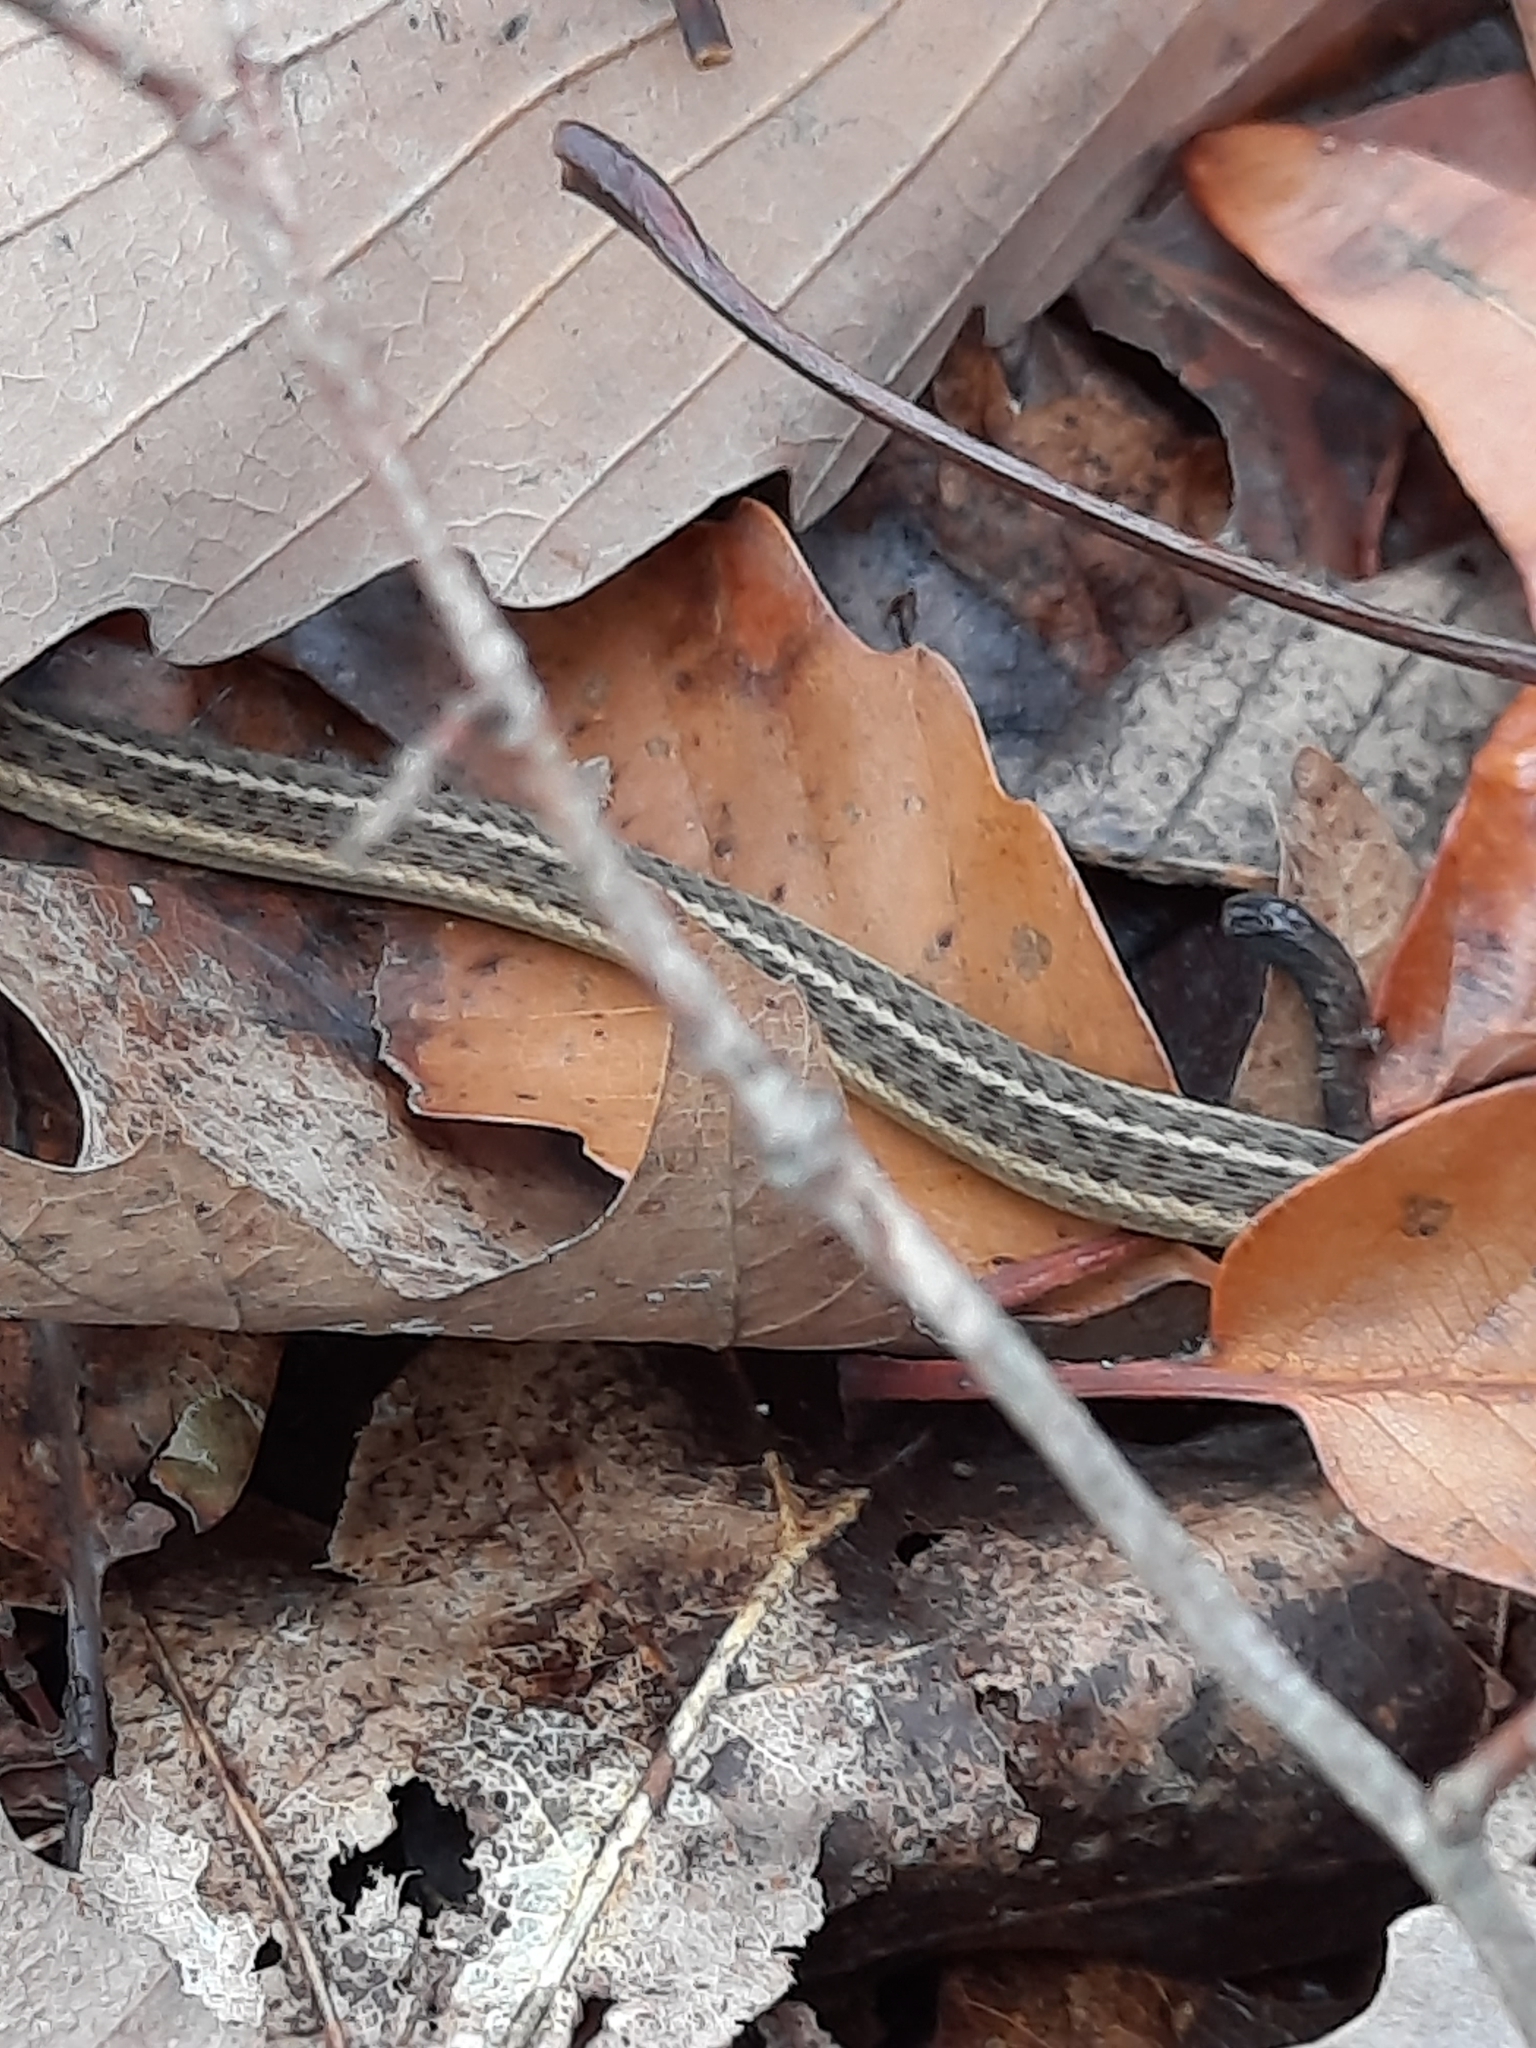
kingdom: Animalia
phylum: Chordata
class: Squamata
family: Colubridae
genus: Thamnophis
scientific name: Thamnophis sirtalis
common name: Common garter snake
